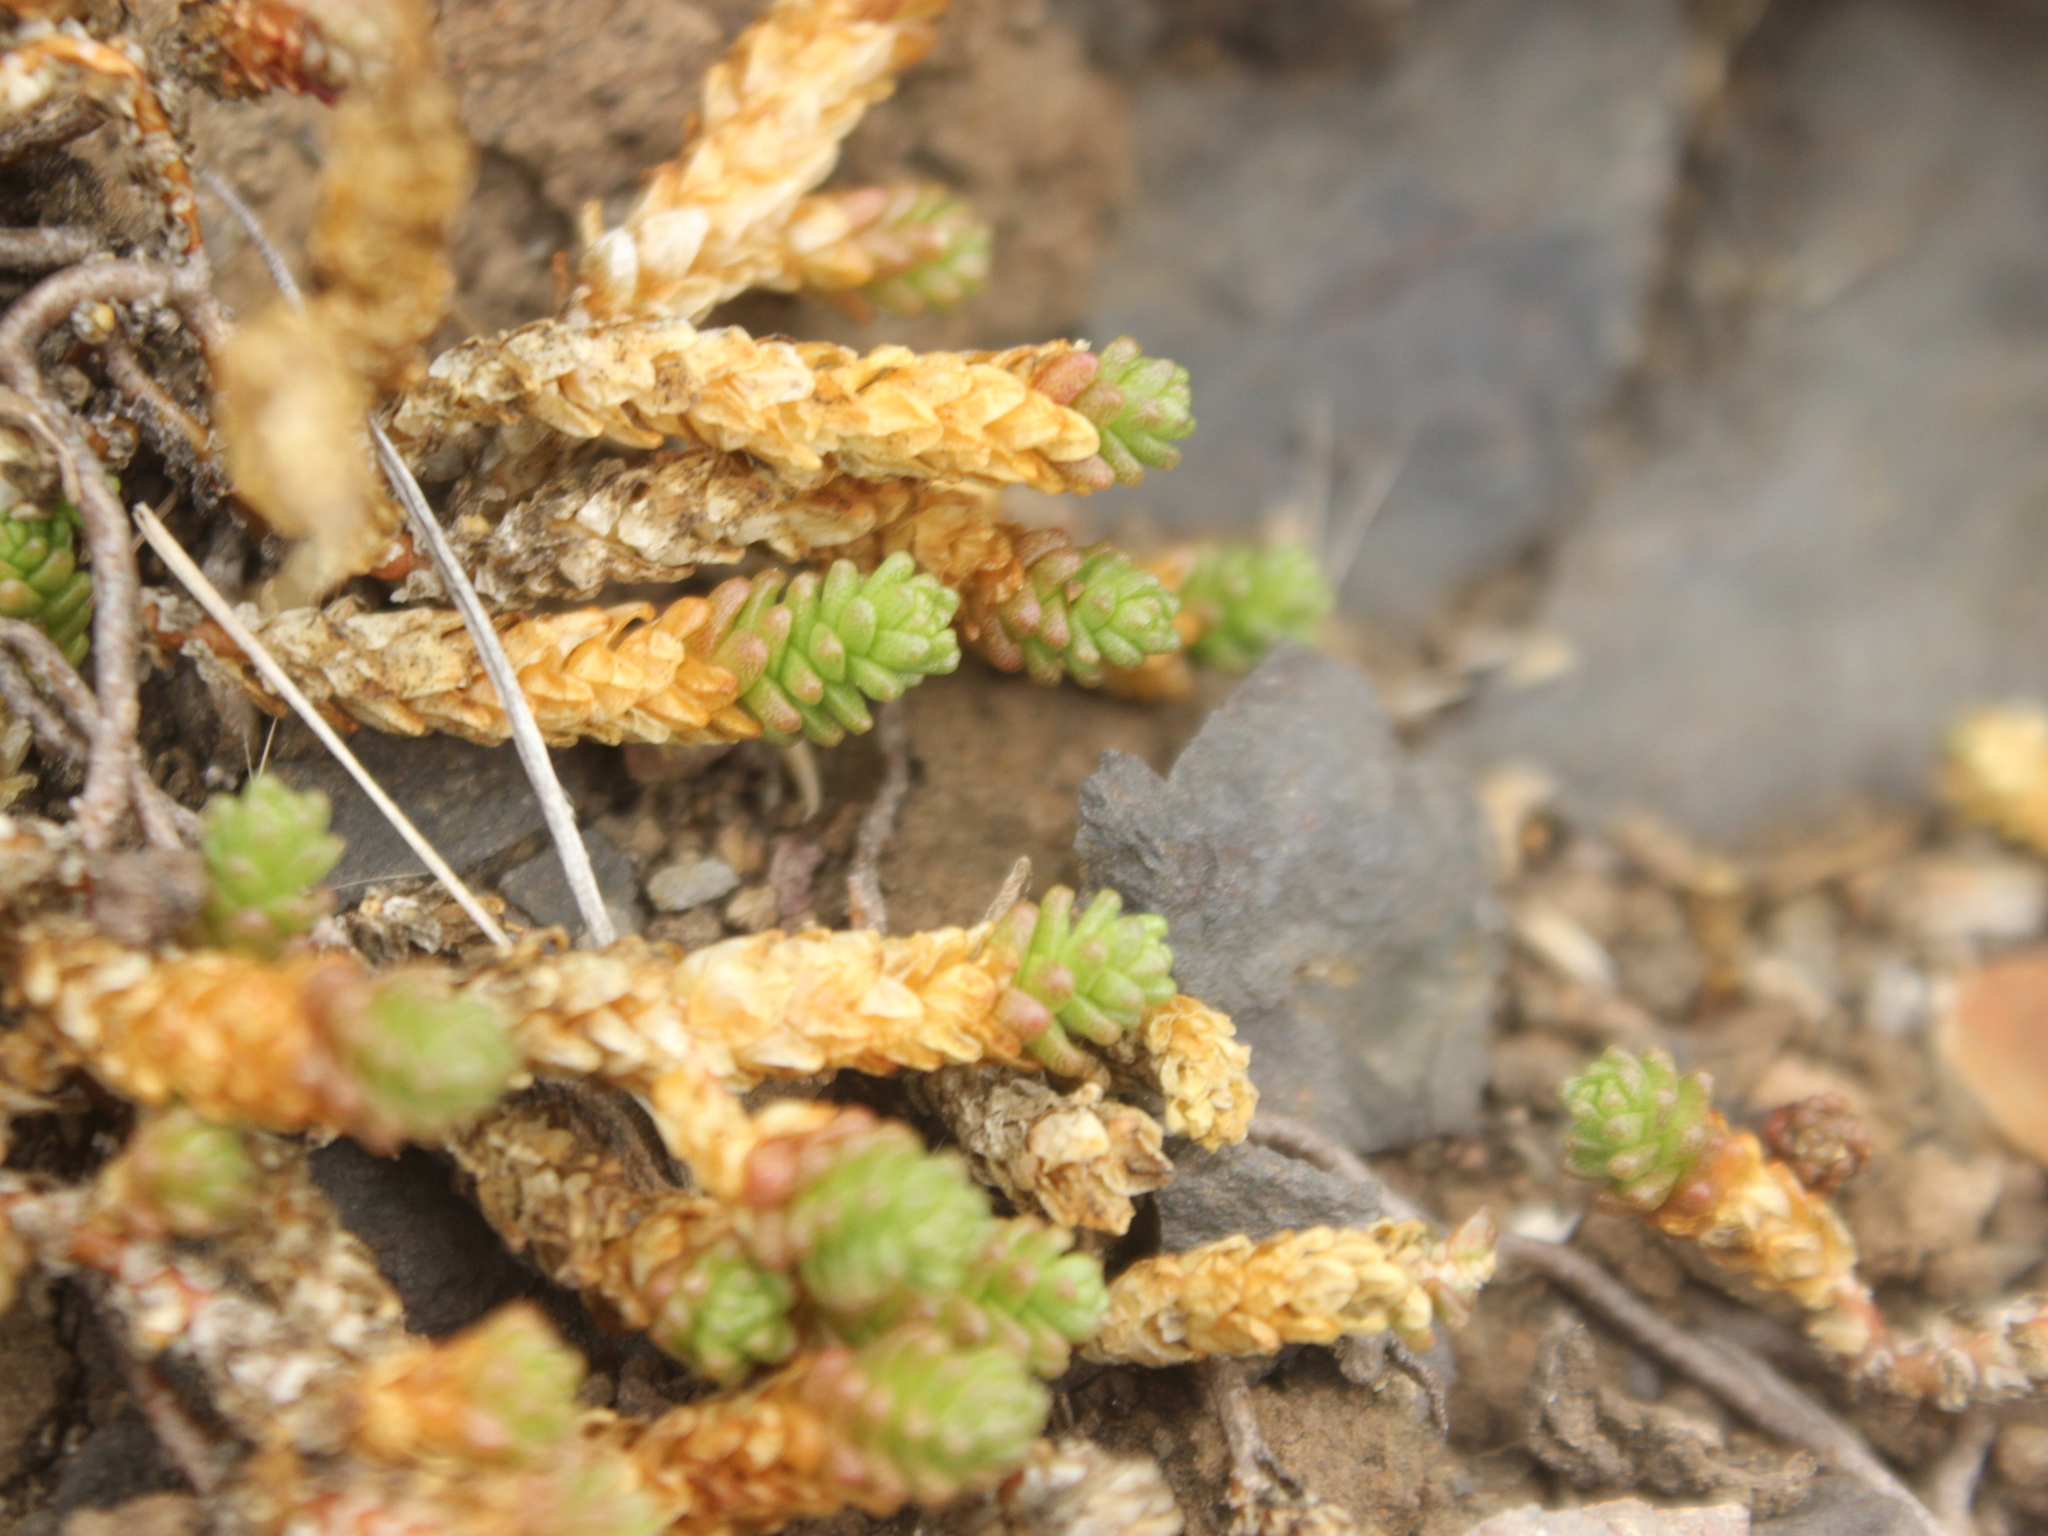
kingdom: Plantae
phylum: Tracheophyta
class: Magnoliopsida
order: Saxifragales
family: Crassulaceae
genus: Sedum
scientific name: Sedum acre
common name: Biting stonecrop
